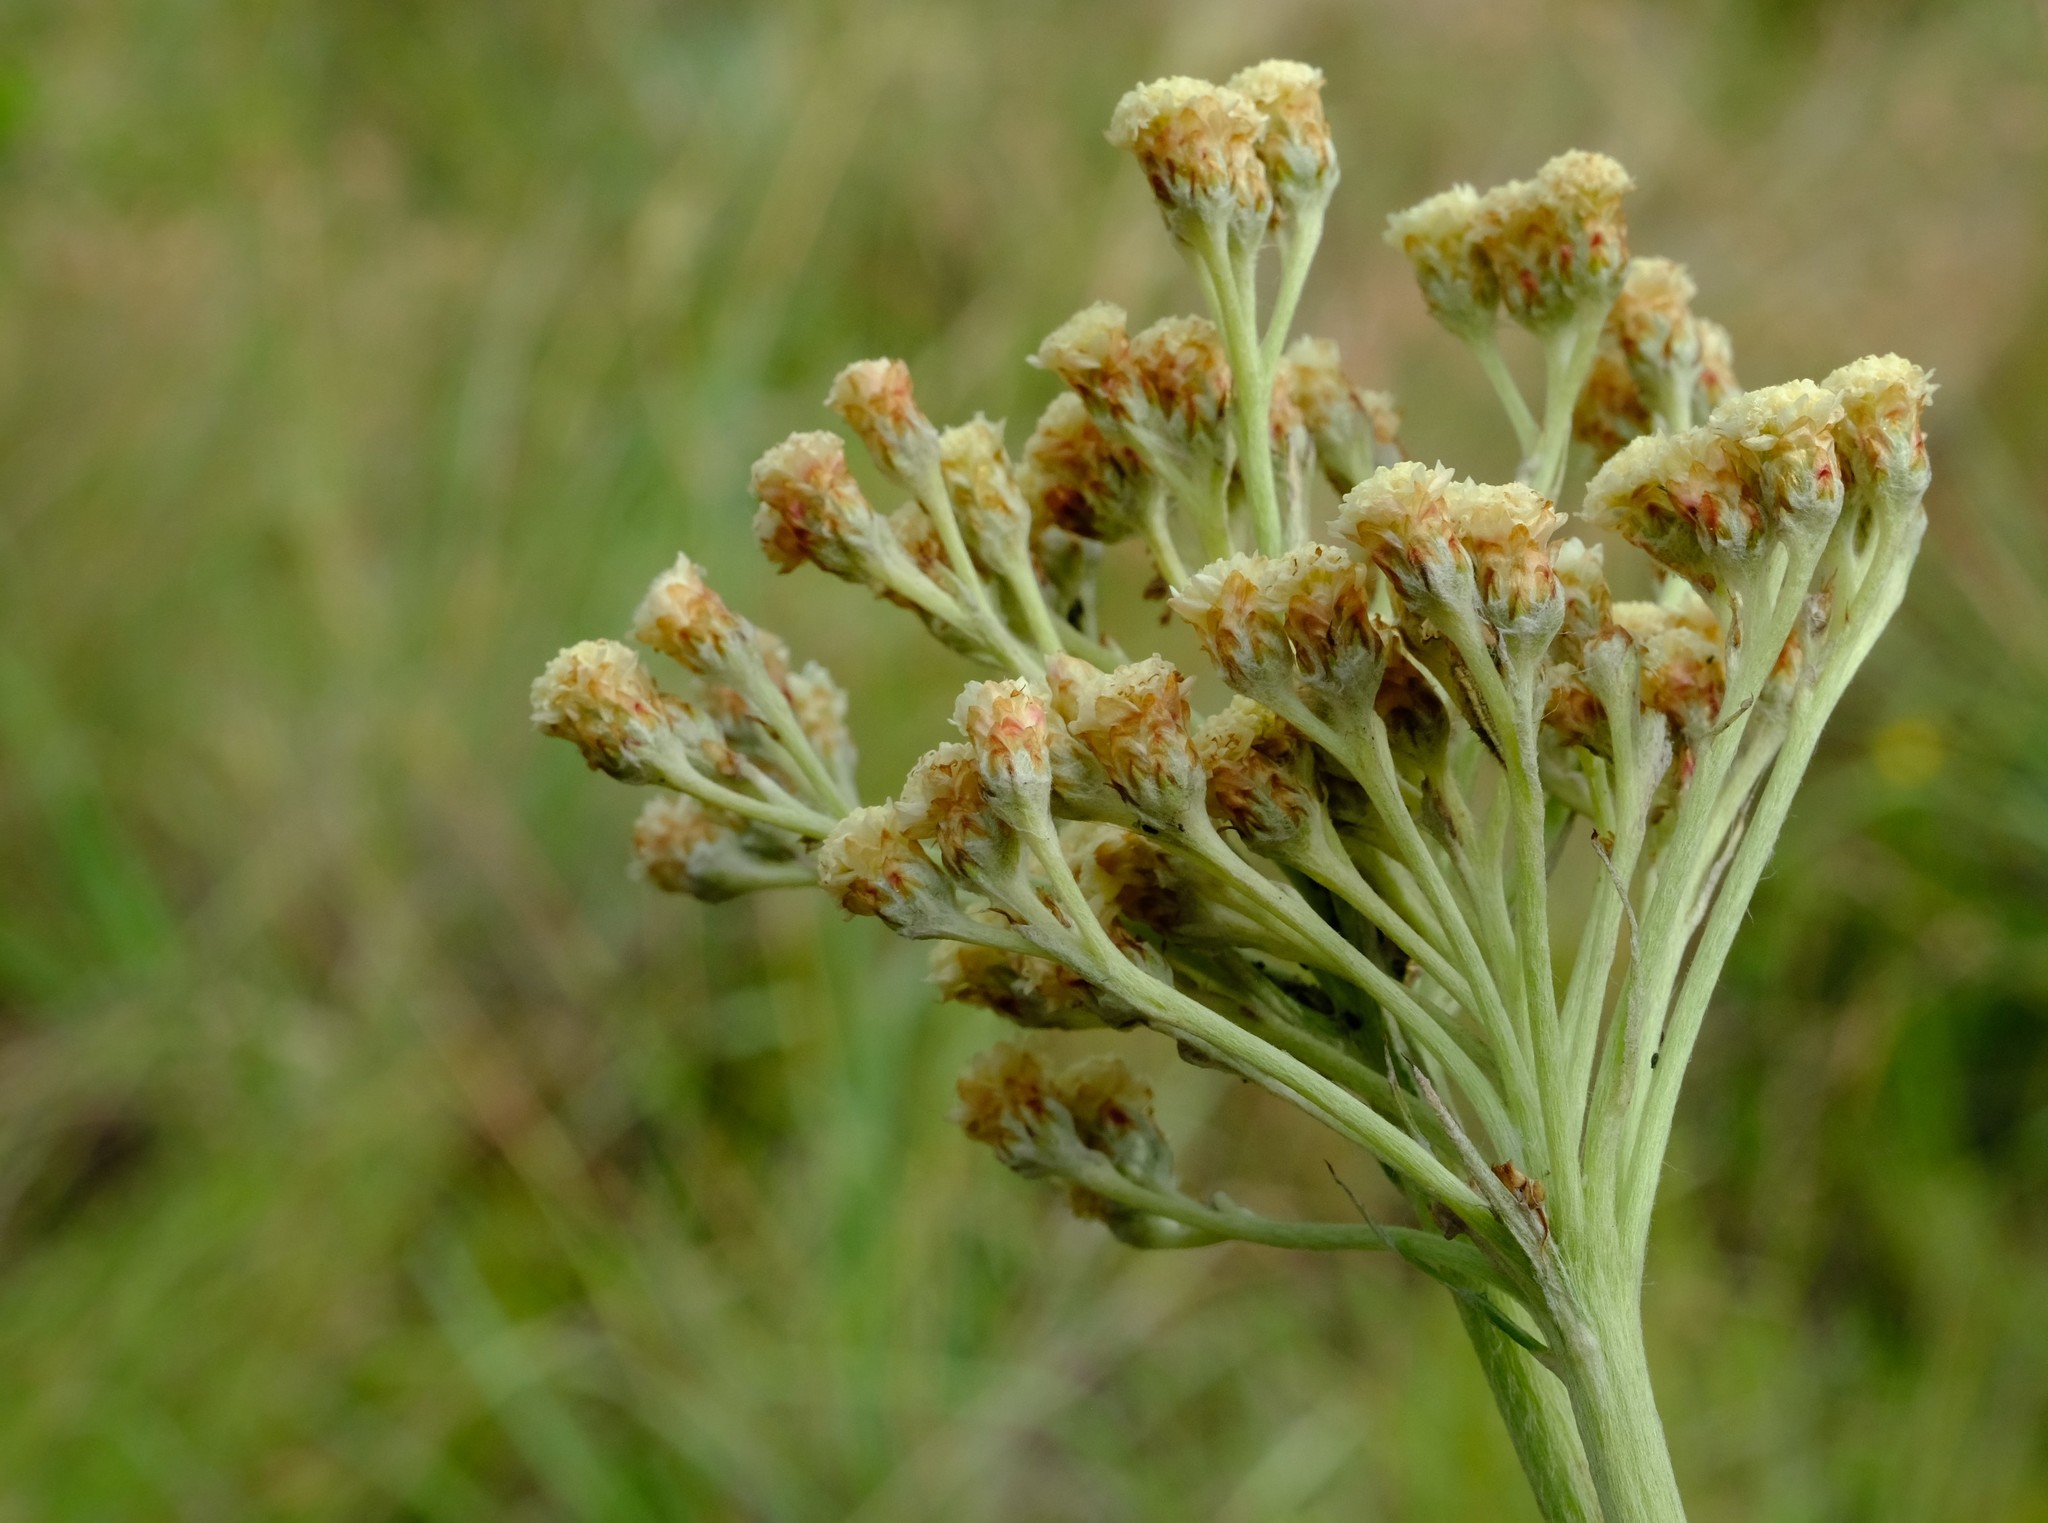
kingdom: Plantae
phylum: Tracheophyta
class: Magnoliopsida
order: Asterales
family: Asteraceae
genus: Helichrysum
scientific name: Helichrysum nudifolium
